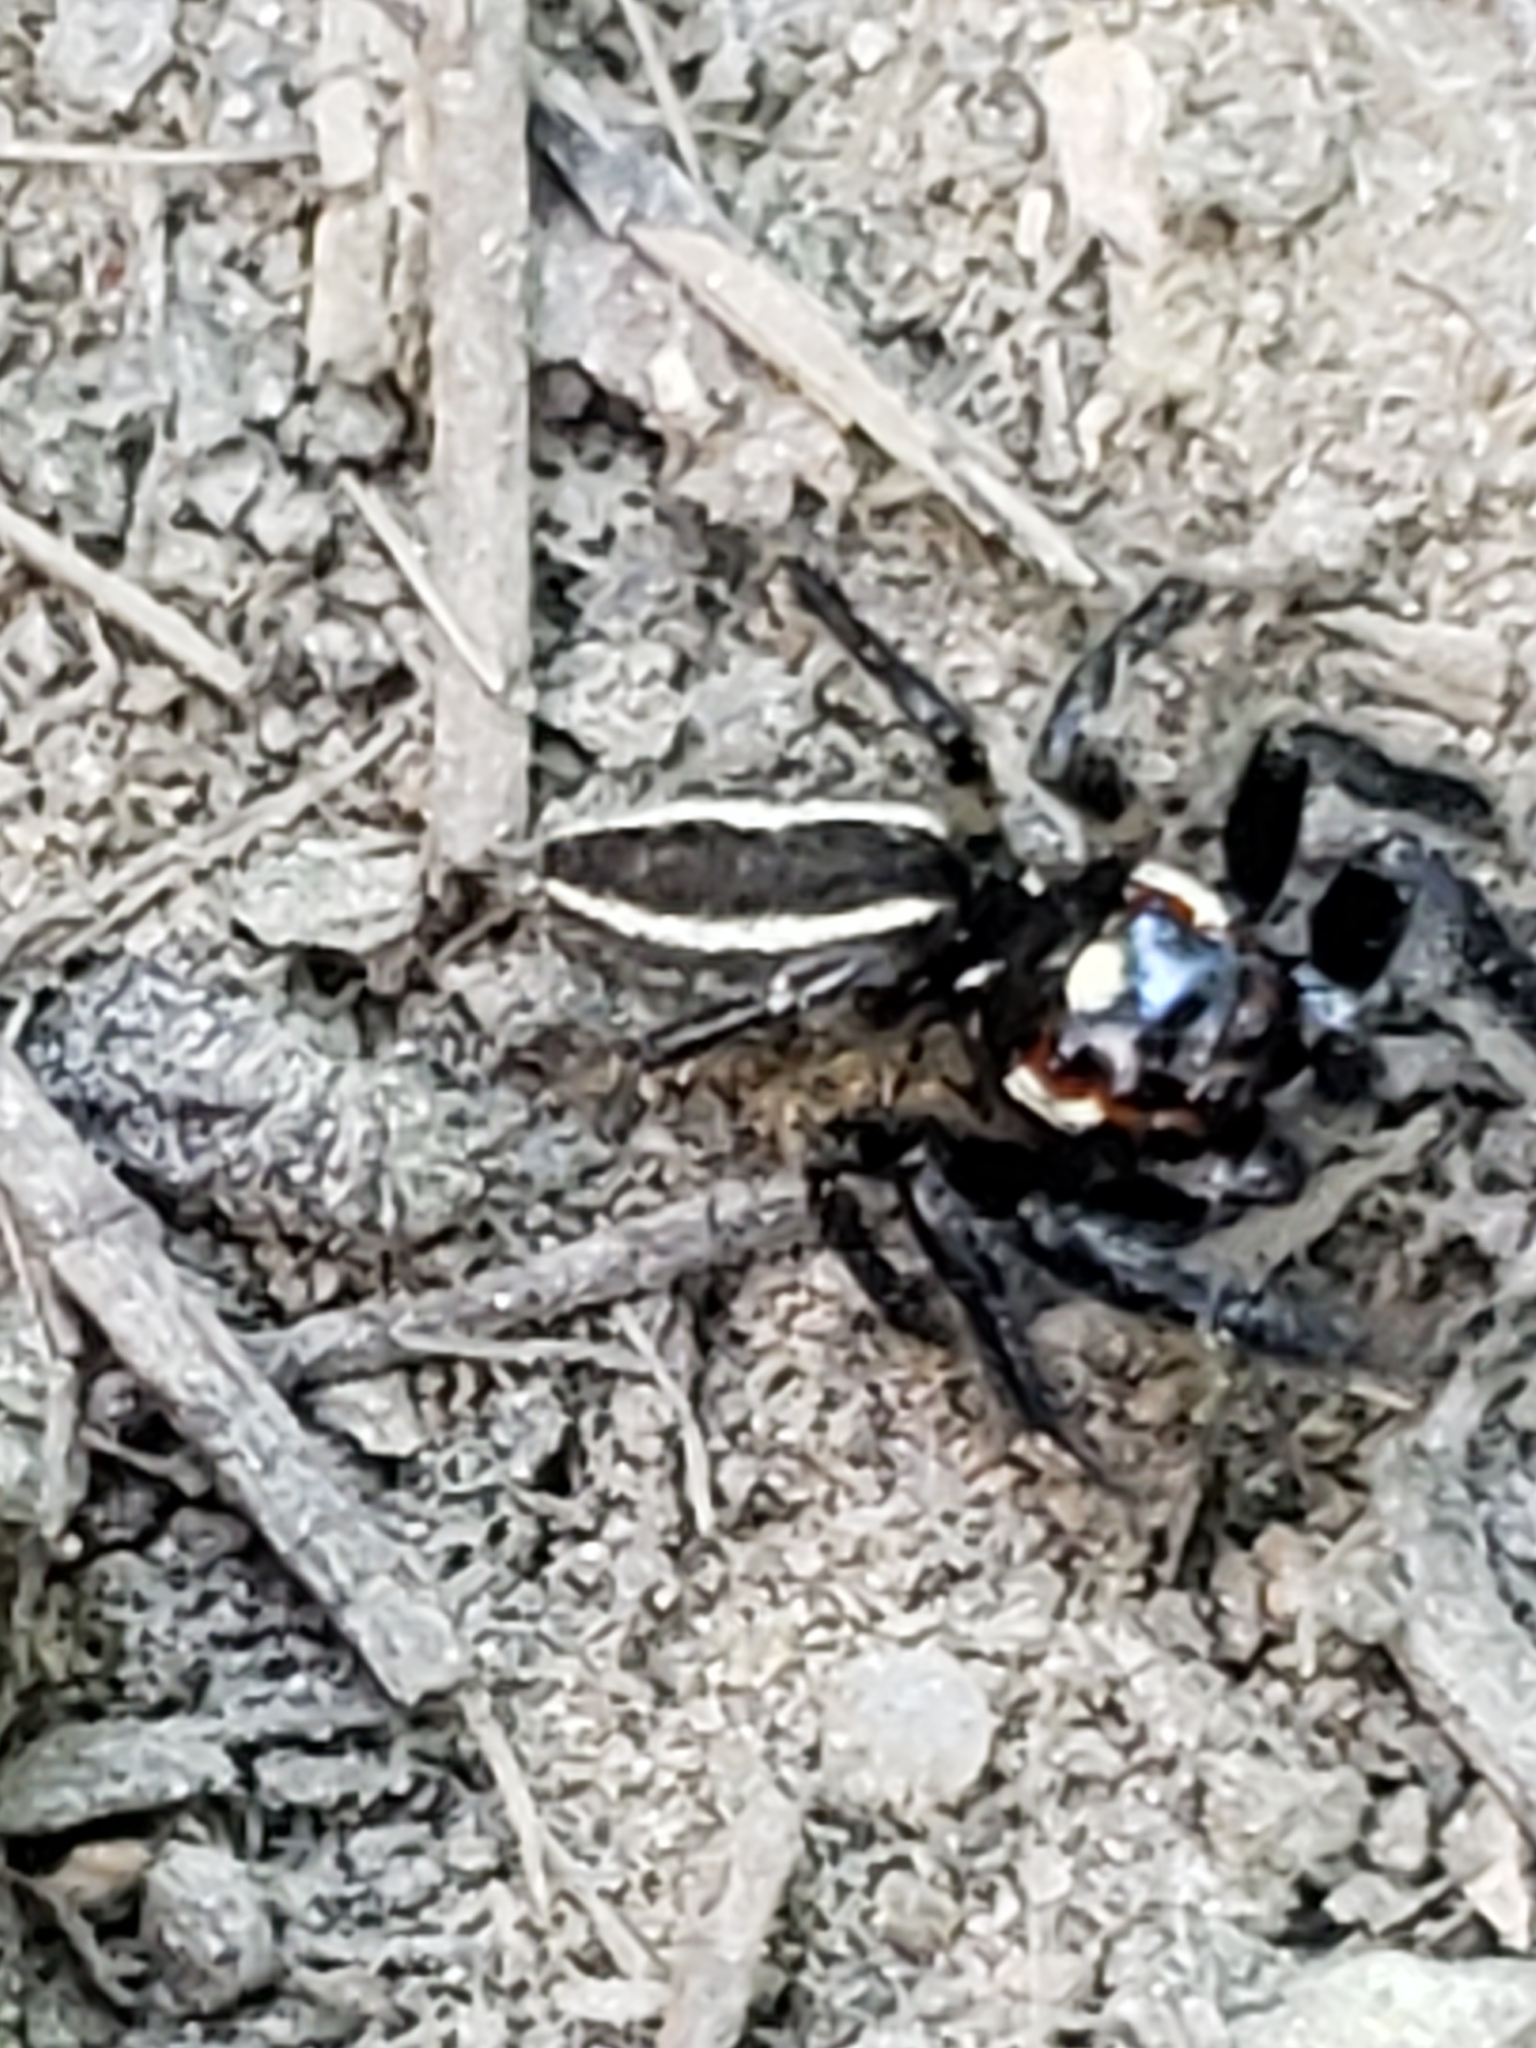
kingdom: Animalia
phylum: Arthropoda
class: Arachnida
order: Araneae
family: Salticidae
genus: Colonus
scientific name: Colonus sylvanus
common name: Jumping spiders
